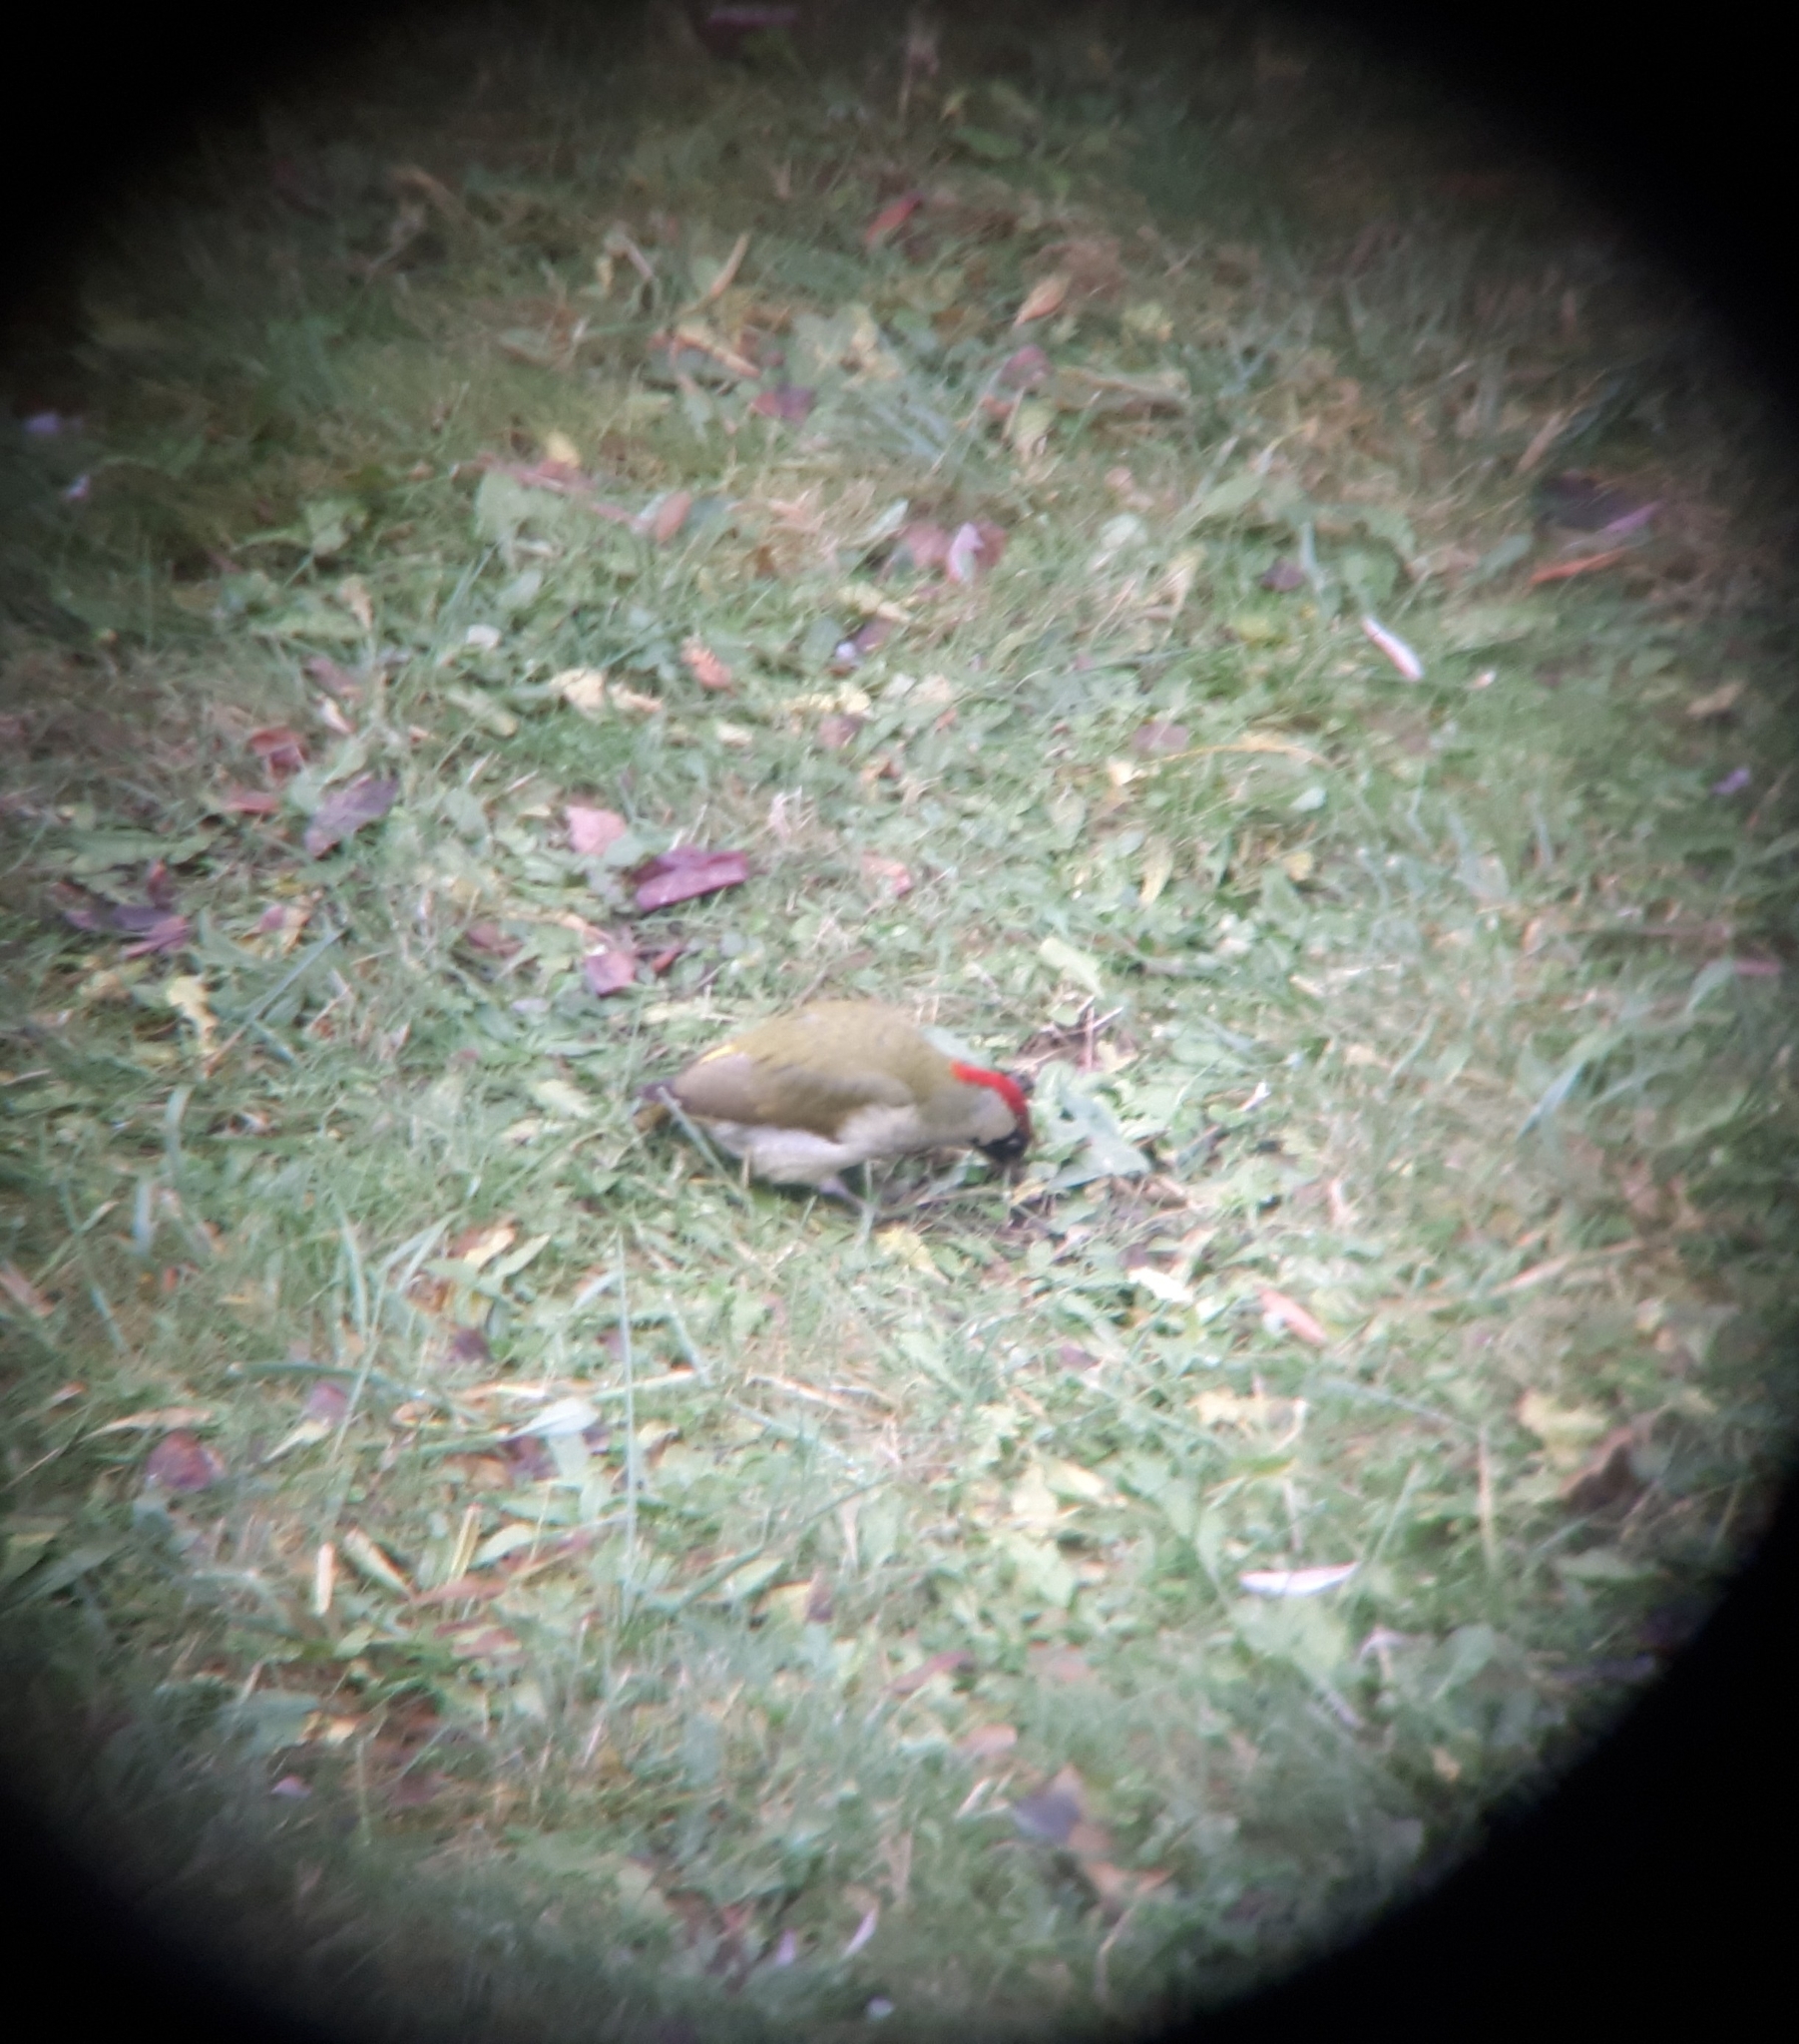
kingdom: Animalia
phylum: Chordata
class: Aves
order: Piciformes
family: Picidae
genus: Picus
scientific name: Picus viridis
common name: European green woodpecker
